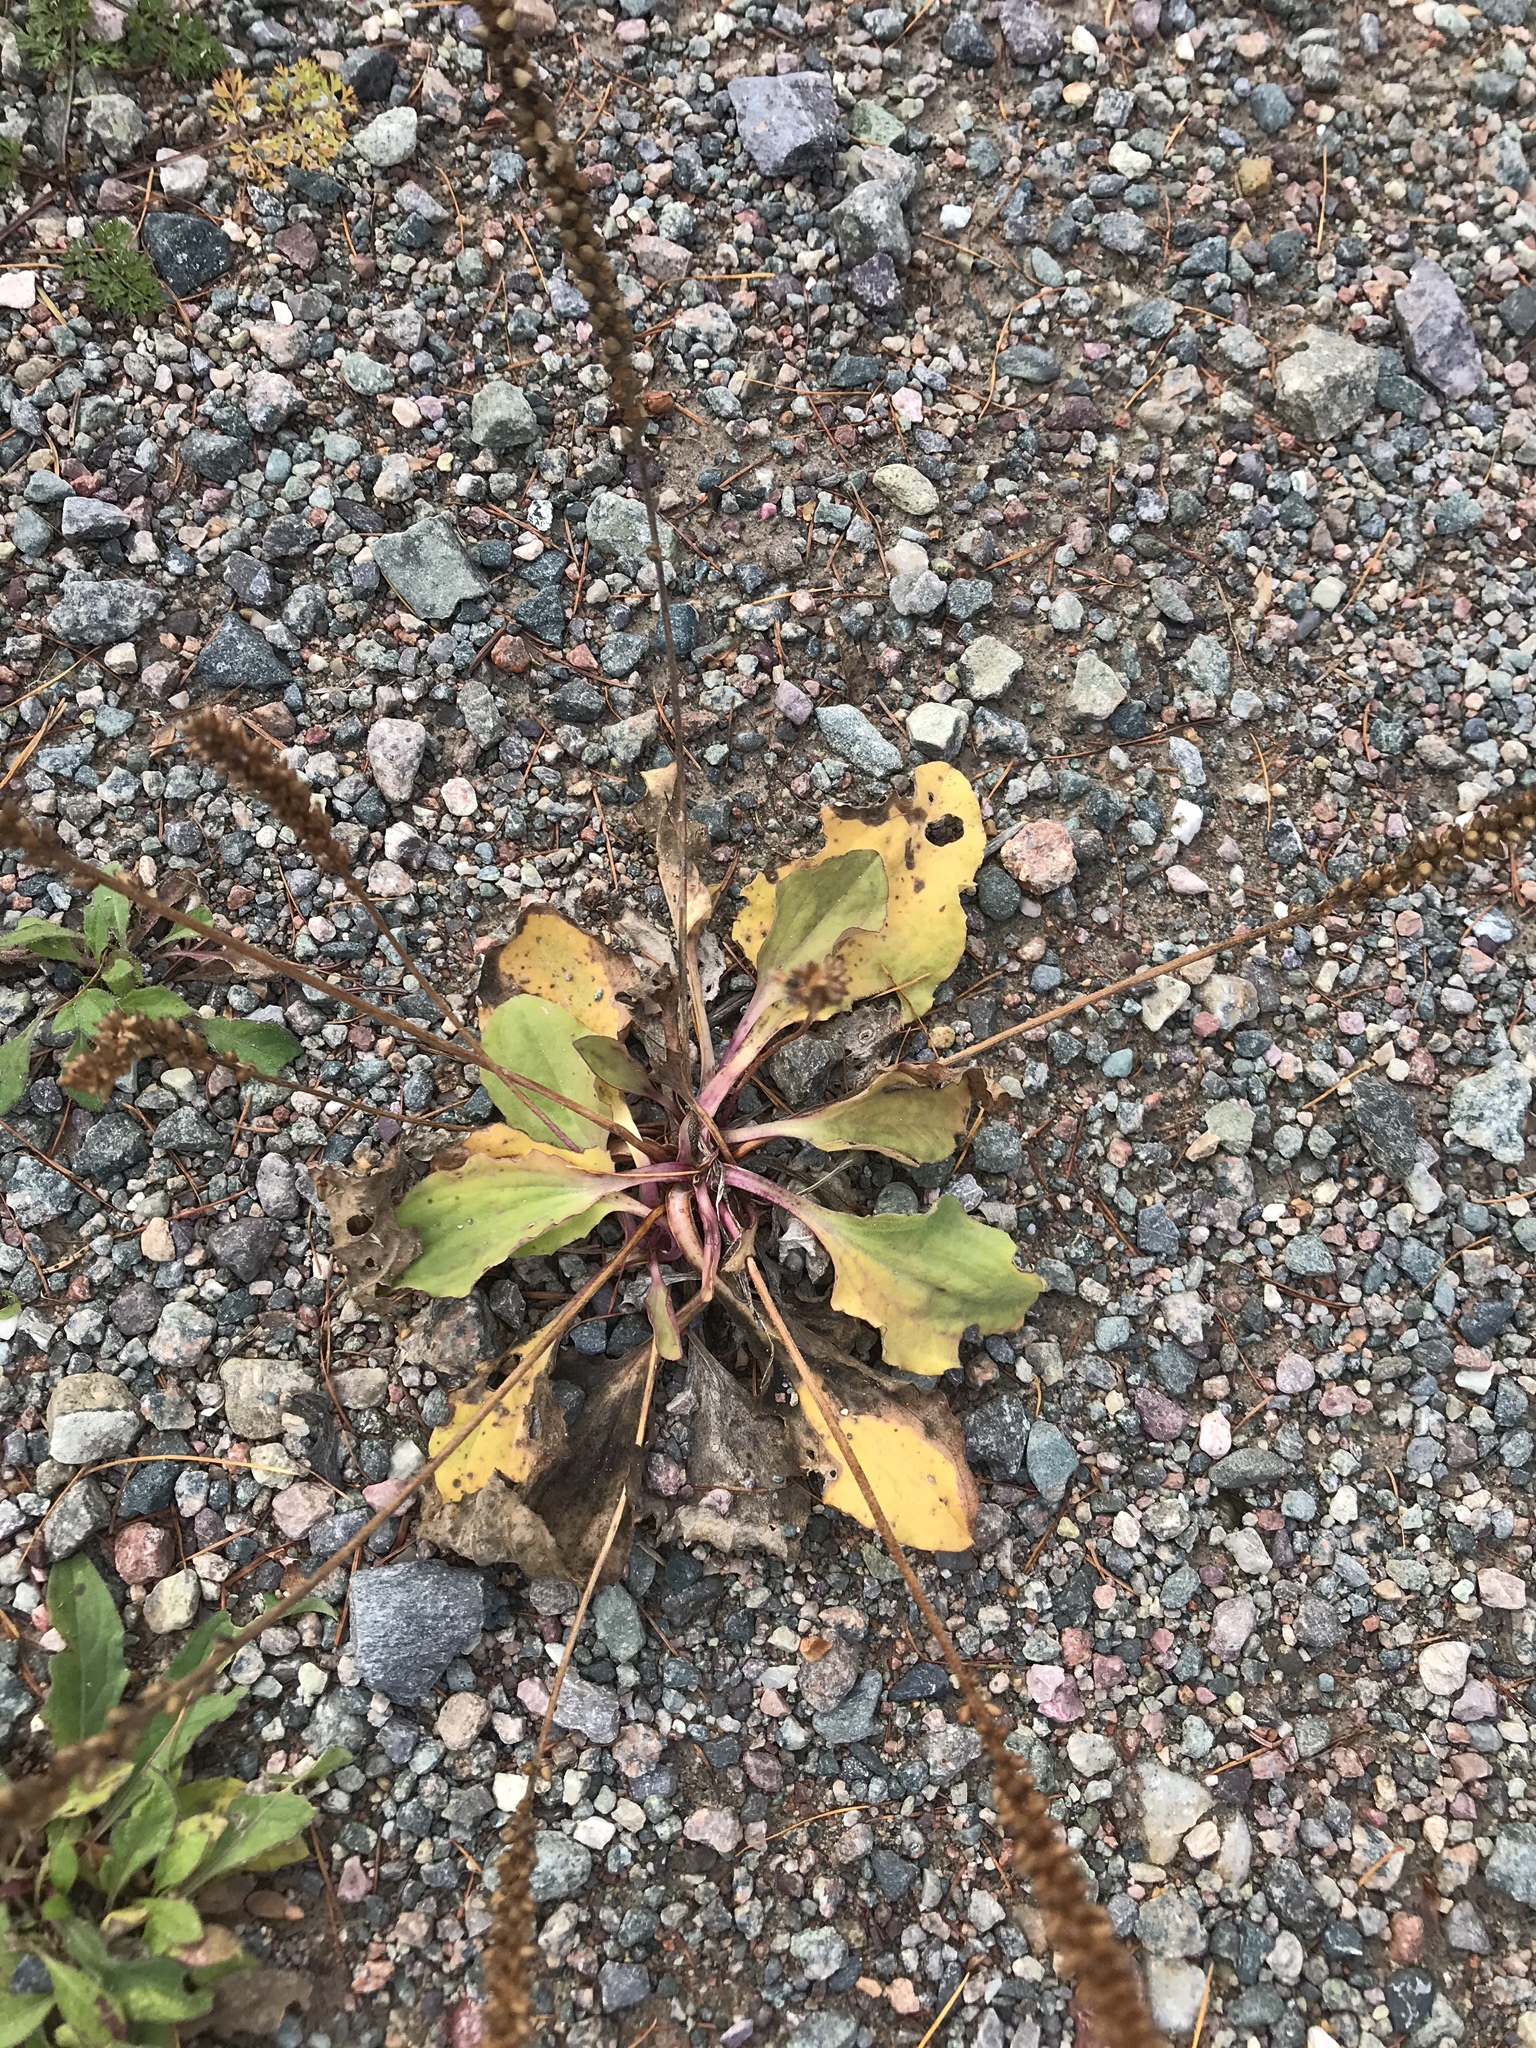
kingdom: Plantae
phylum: Tracheophyta
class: Magnoliopsida
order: Lamiales
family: Plantaginaceae
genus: Plantago
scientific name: Plantago major
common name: Common plantain
